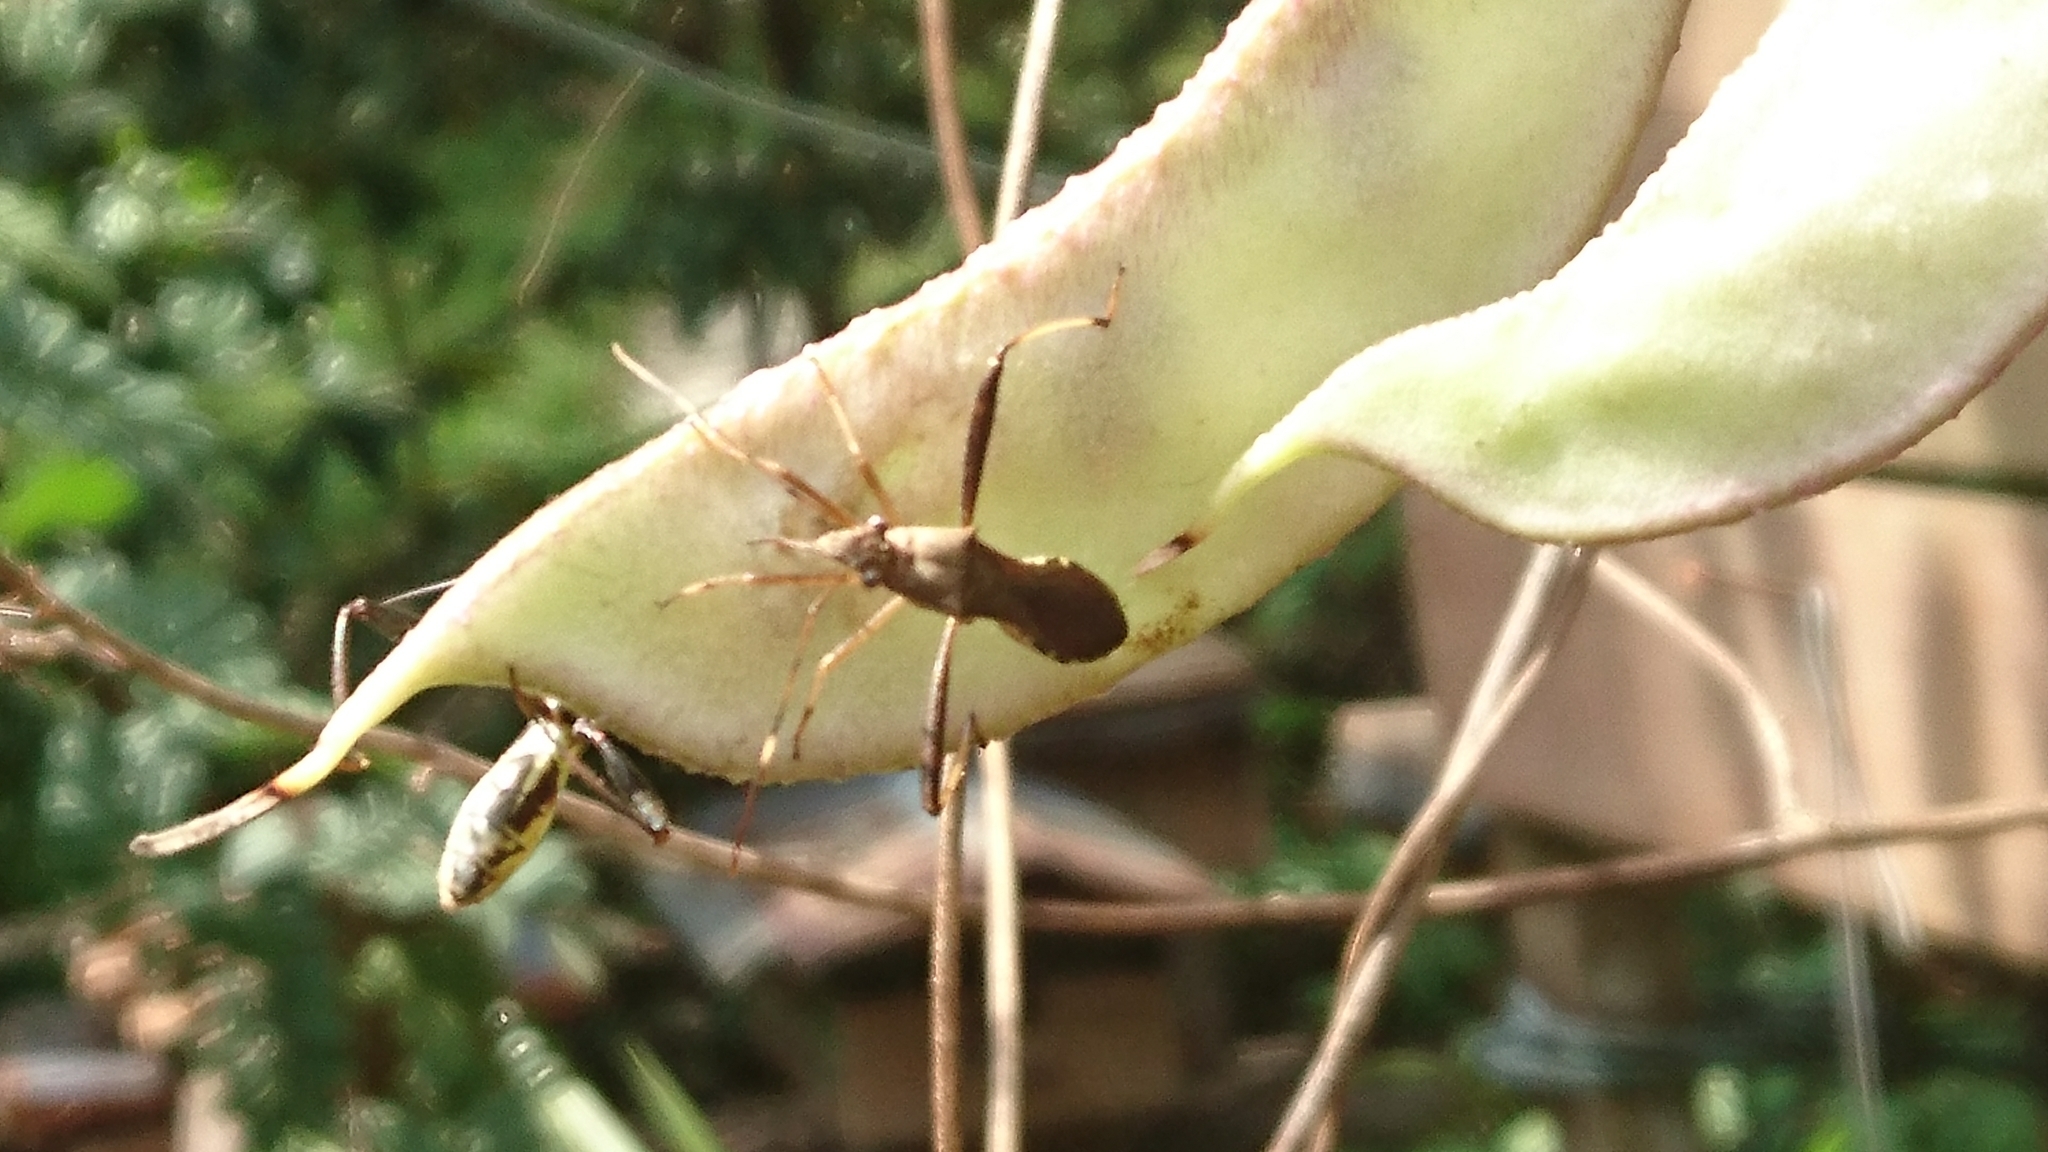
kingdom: Animalia
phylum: Arthropoda
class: Insecta
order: Hemiptera
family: Alydidae
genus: Riptortus
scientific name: Riptortus
